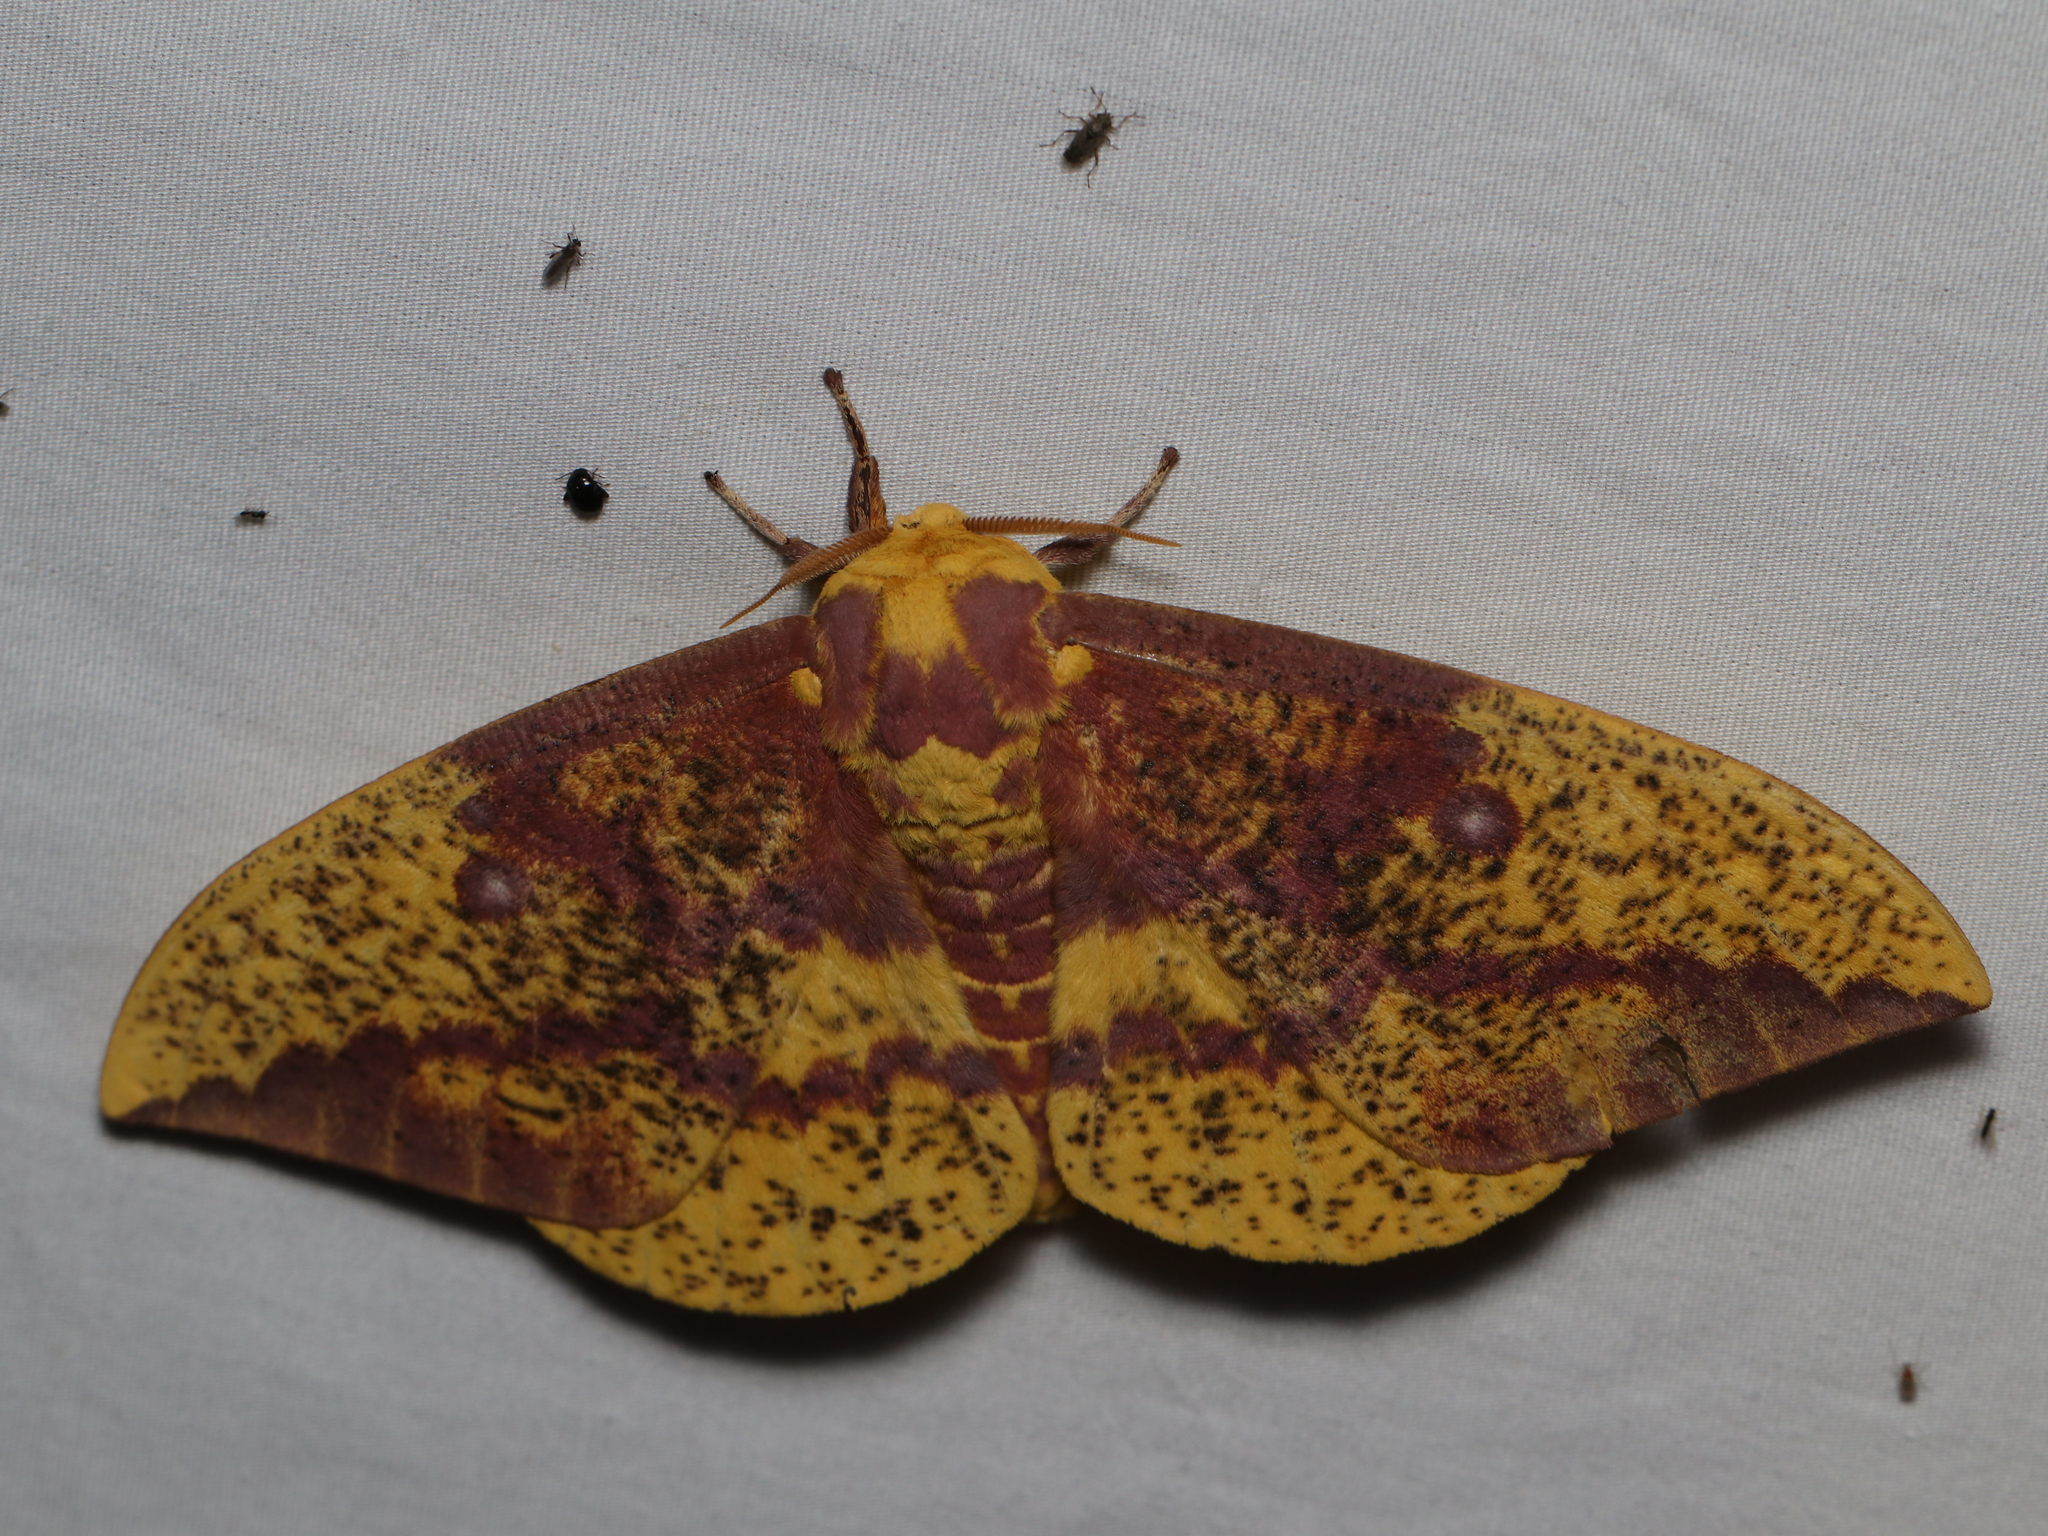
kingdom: Animalia
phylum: Arthropoda
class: Insecta
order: Lepidoptera
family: Saturniidae
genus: Eacles
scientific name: Eacles imperialis
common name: Imperial moth
